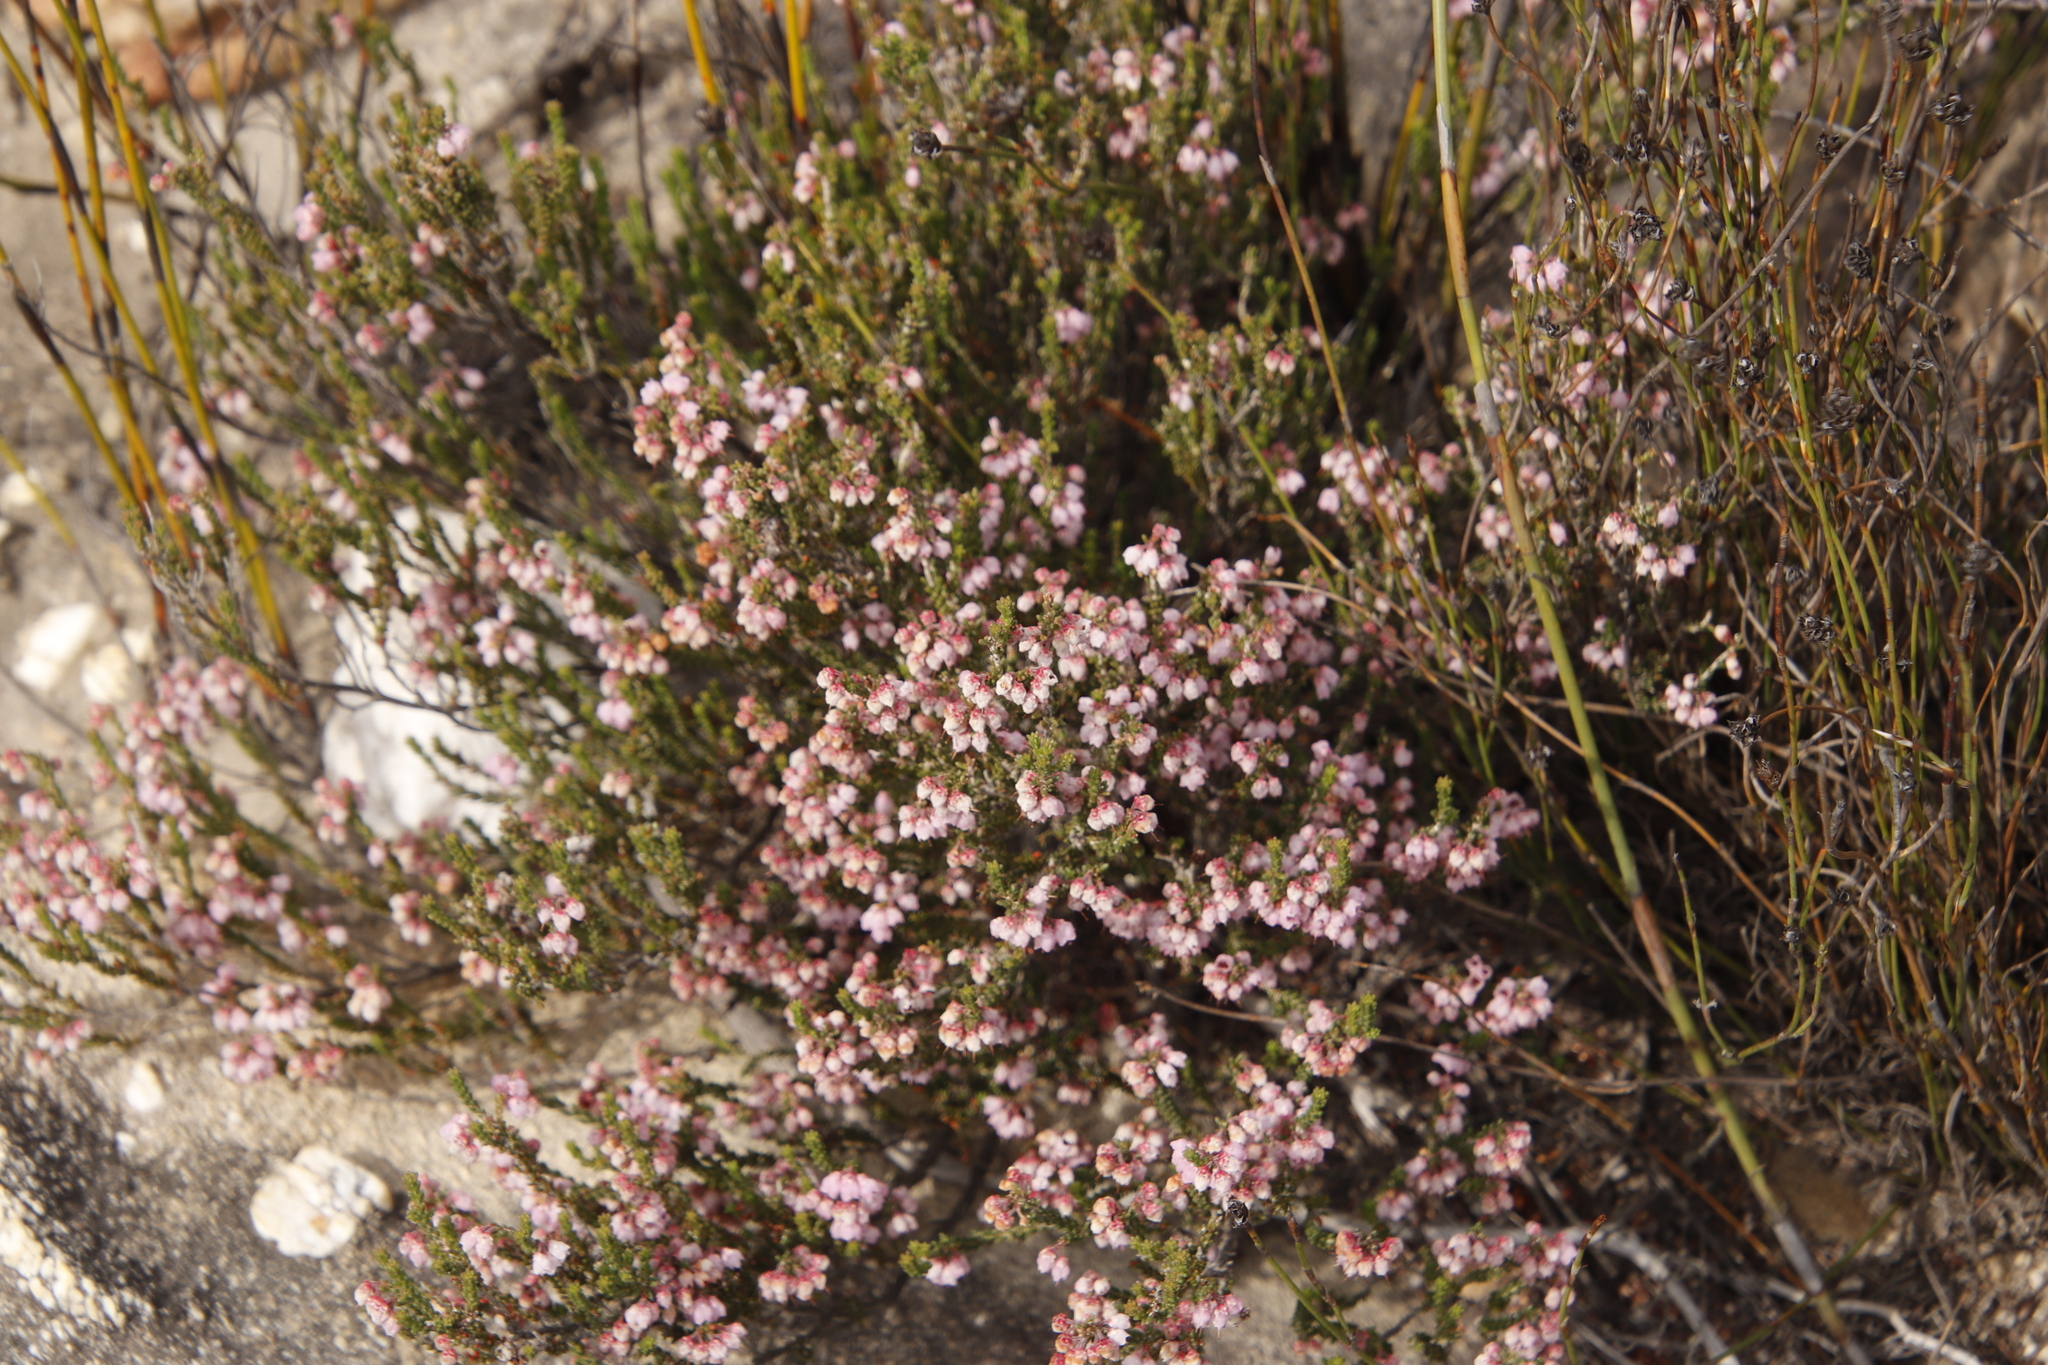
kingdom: Plantae
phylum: Tracheophyta
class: Magnoliopsida
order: Ericales
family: Ericaceae
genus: Erica
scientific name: Erica umbelliflora
